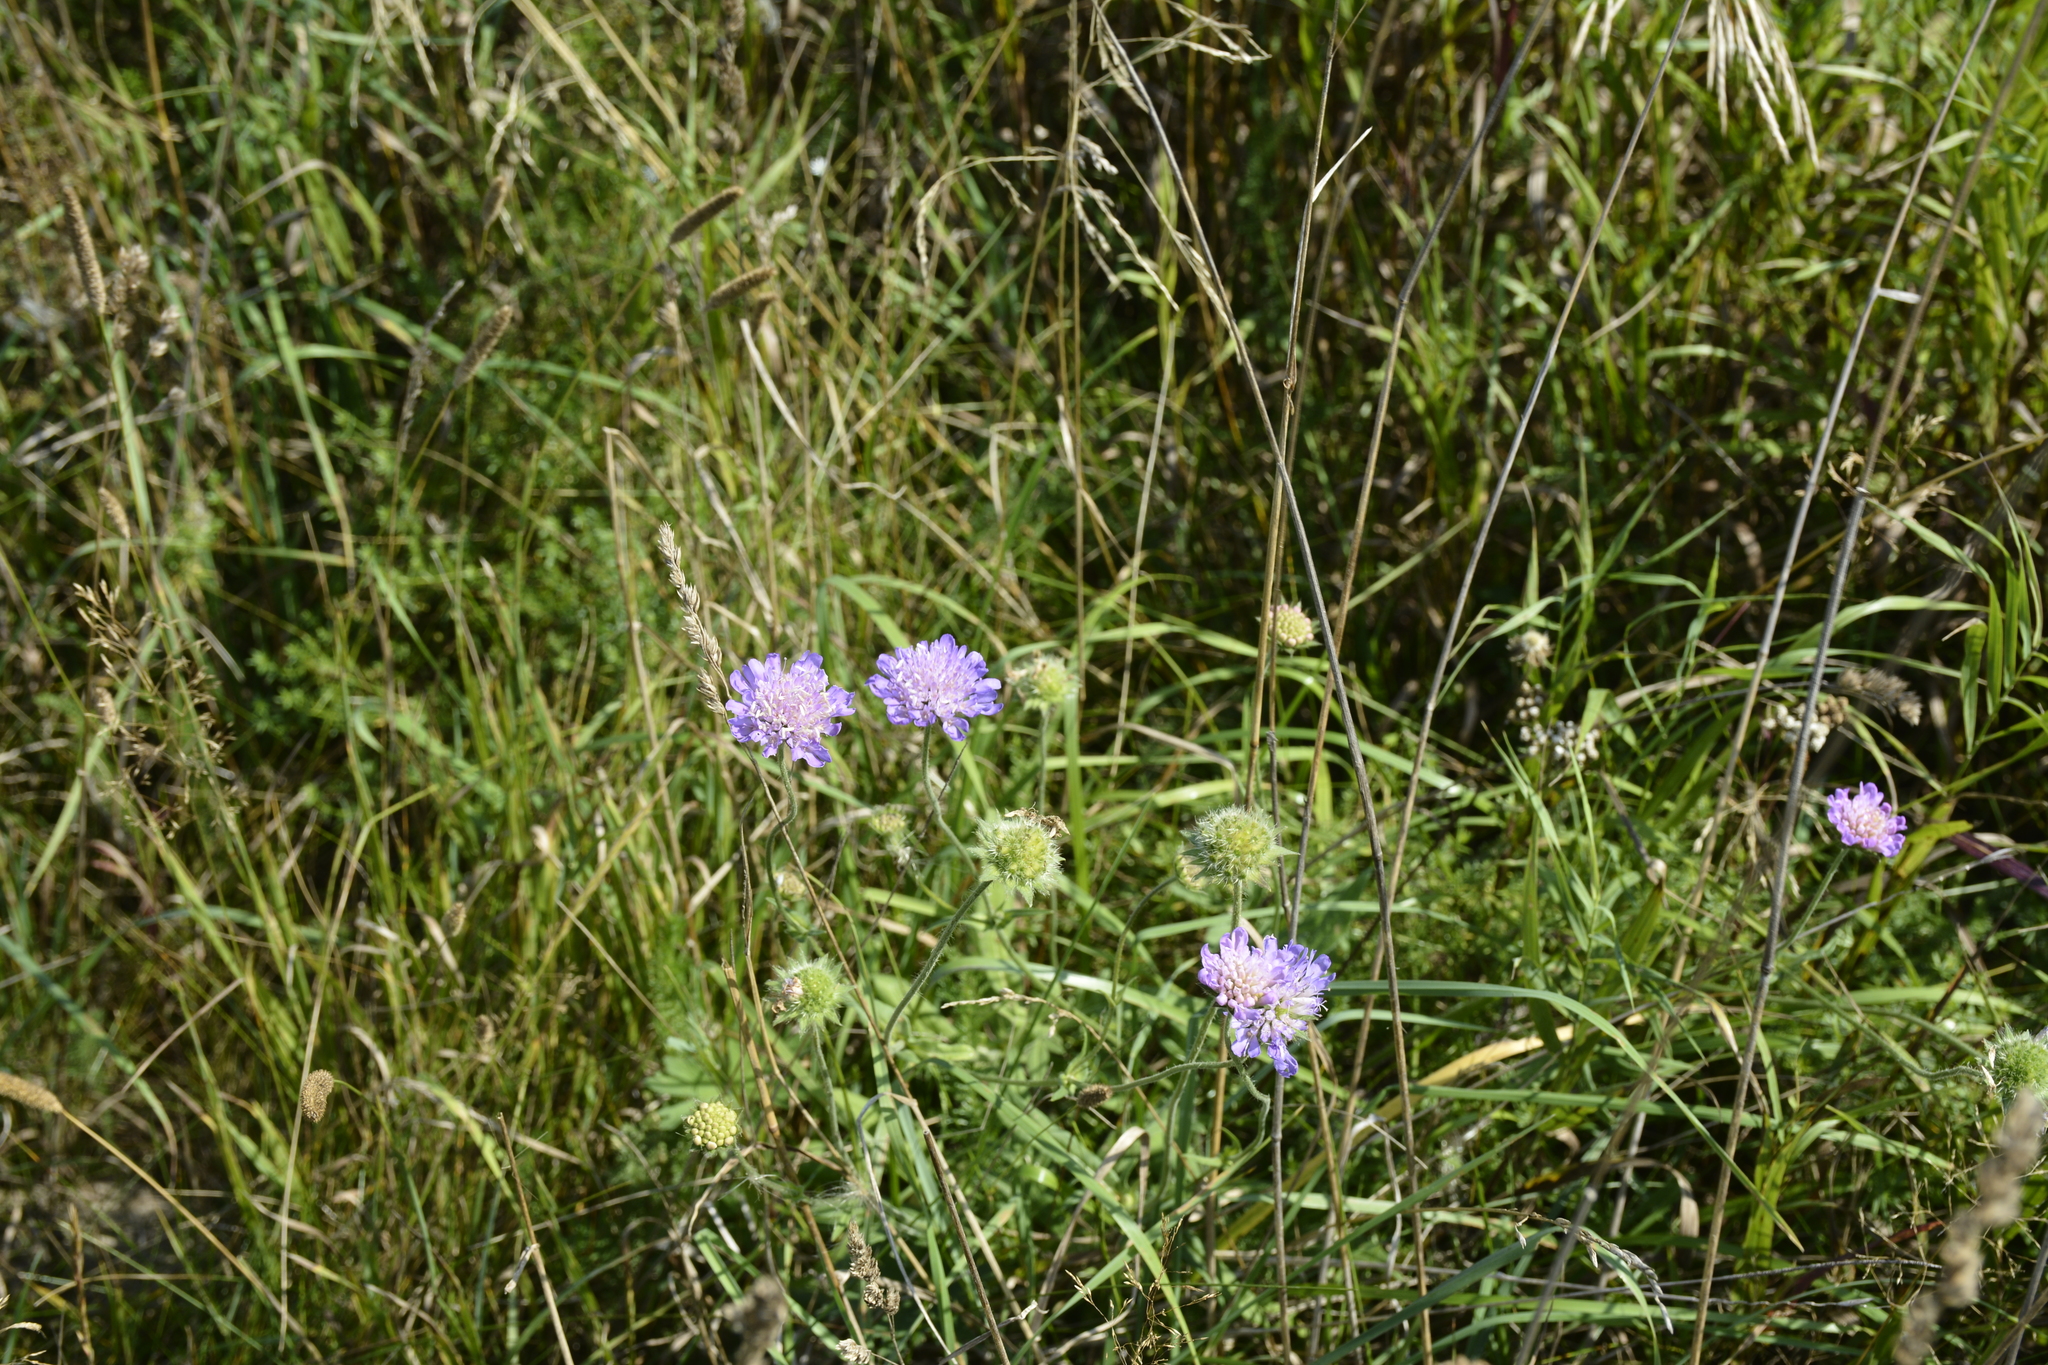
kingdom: Plantae
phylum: Tracheophyta
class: Magnoliopsida
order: Dipsacales
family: Caprifoliaceae
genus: Knautia
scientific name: Knautia arvensis
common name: Field scabiosa
